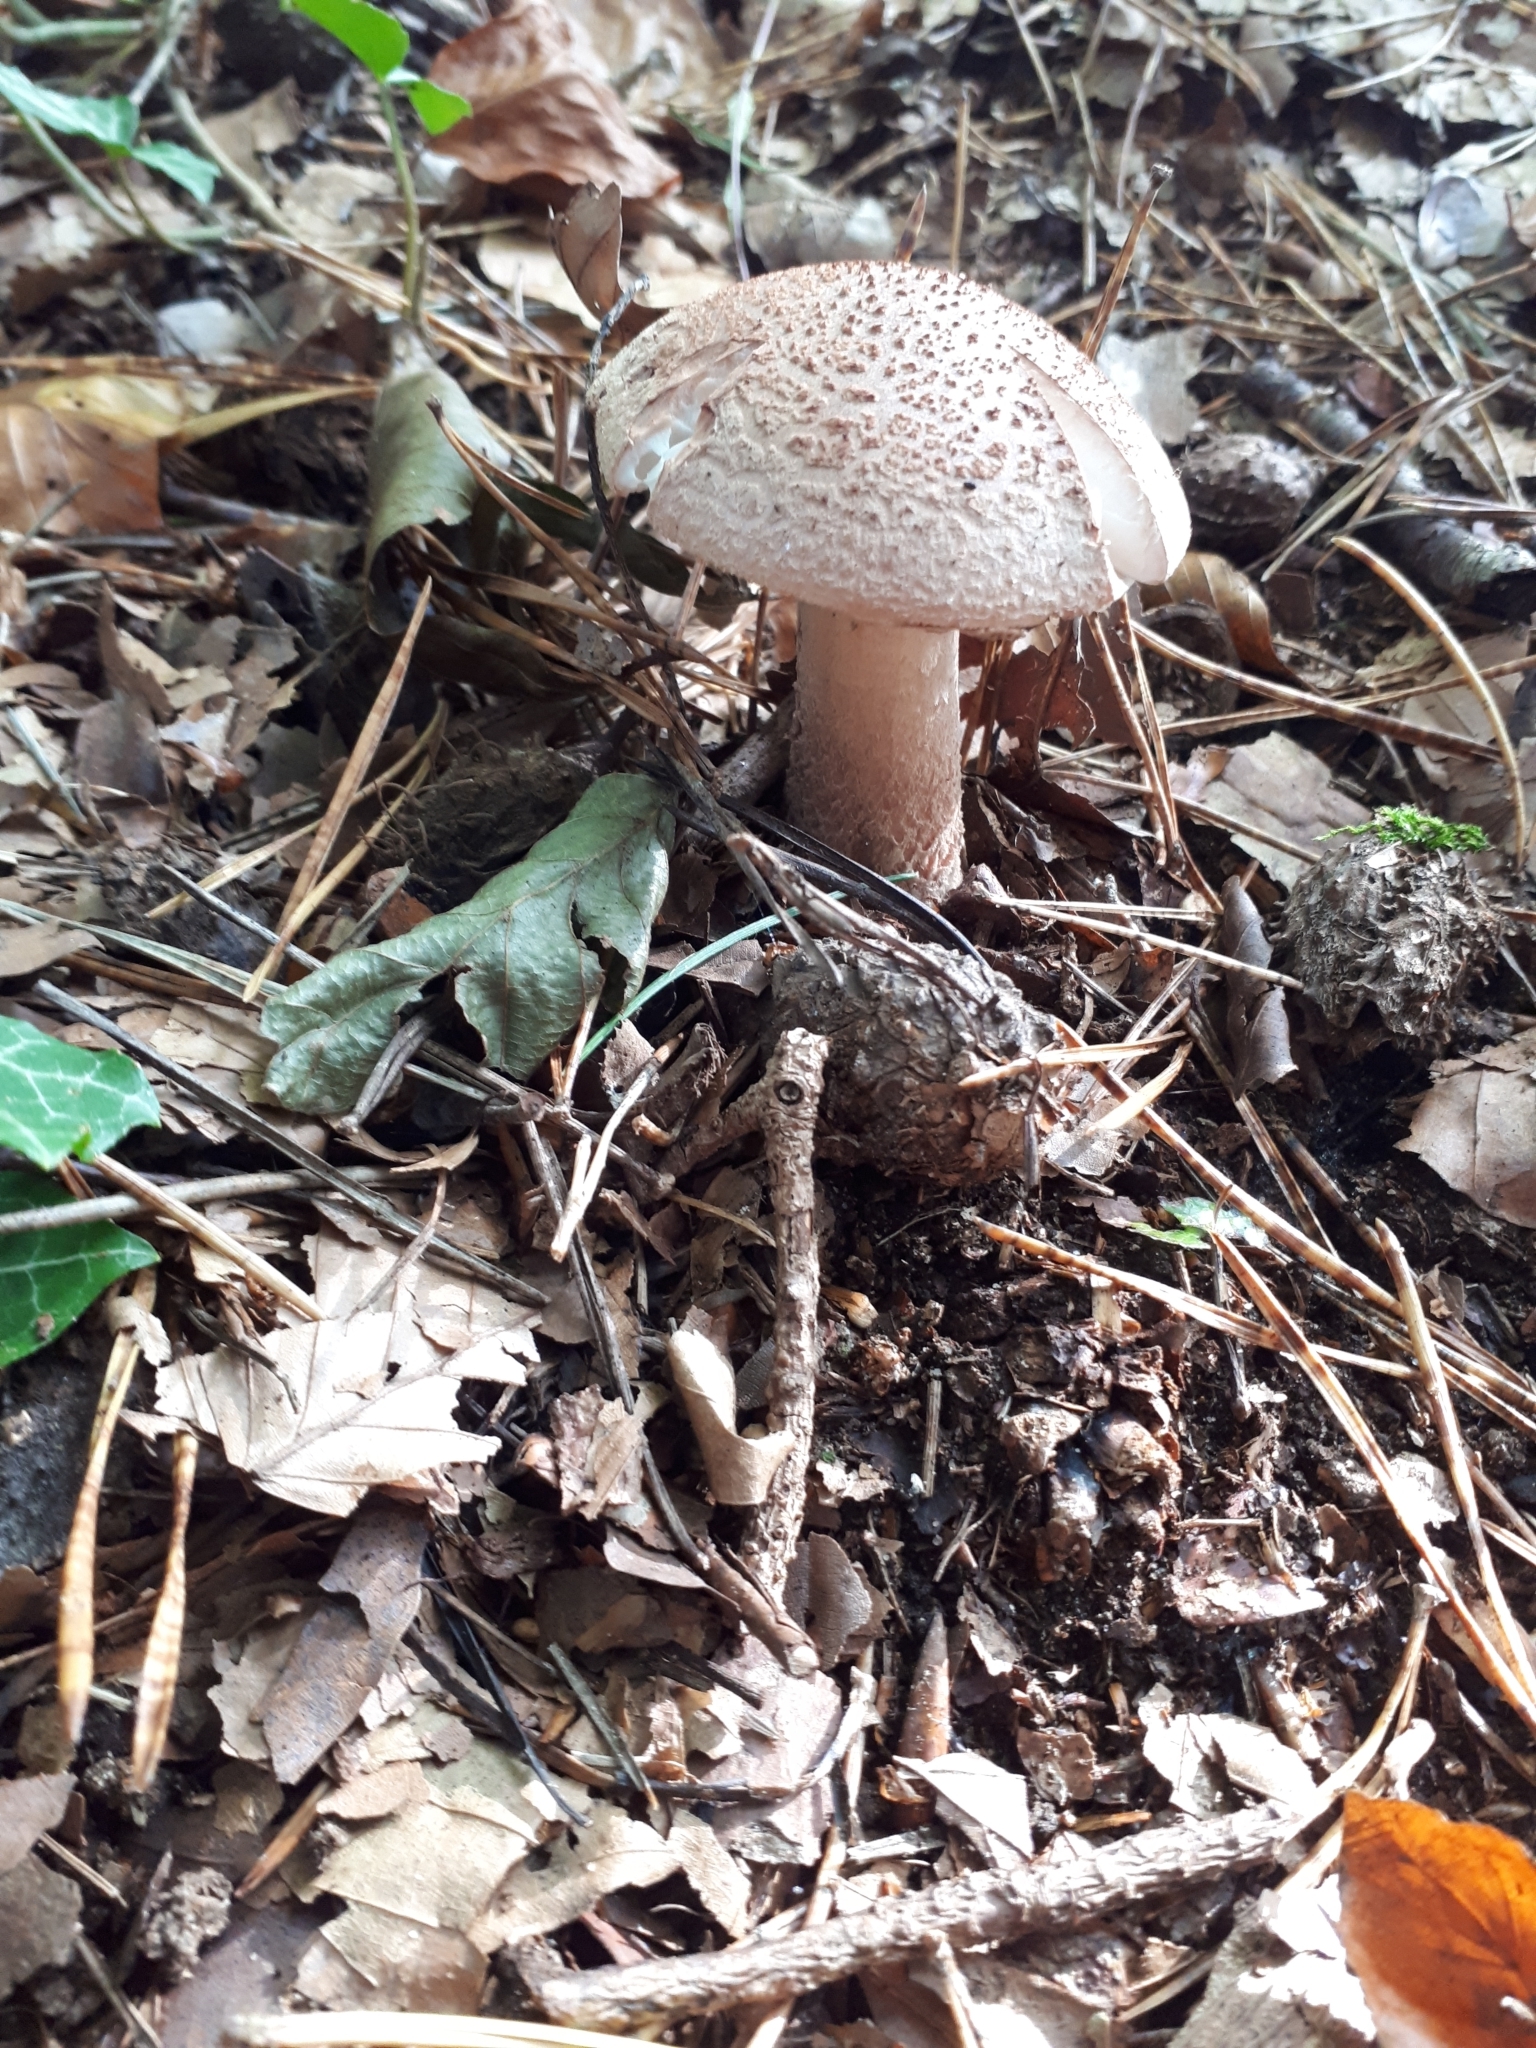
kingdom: Fungi
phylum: Basidiomycota
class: Agaricomycetes
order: Agaricales
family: Amanitaceae
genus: Amanita
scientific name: Amanita rubescens
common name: Blusher
